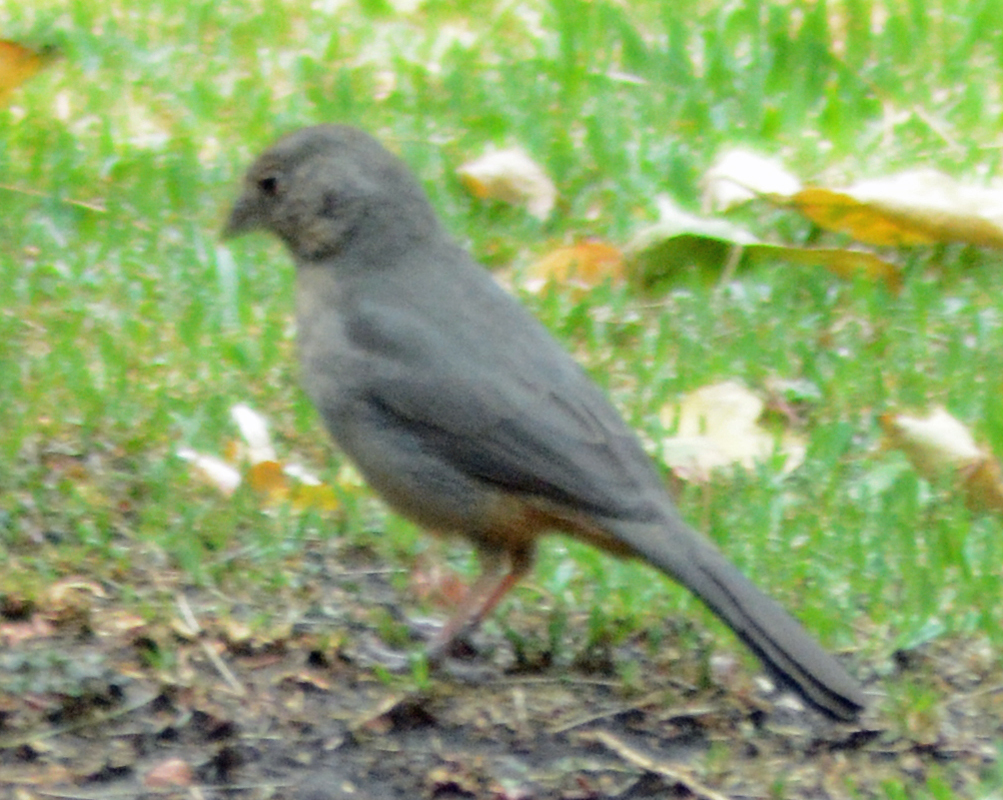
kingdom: Animalia
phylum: Chordata
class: Aves
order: Passeriformes
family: Passerellidae
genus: Melozone
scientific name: Melozone fusca
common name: Canyon towhee
